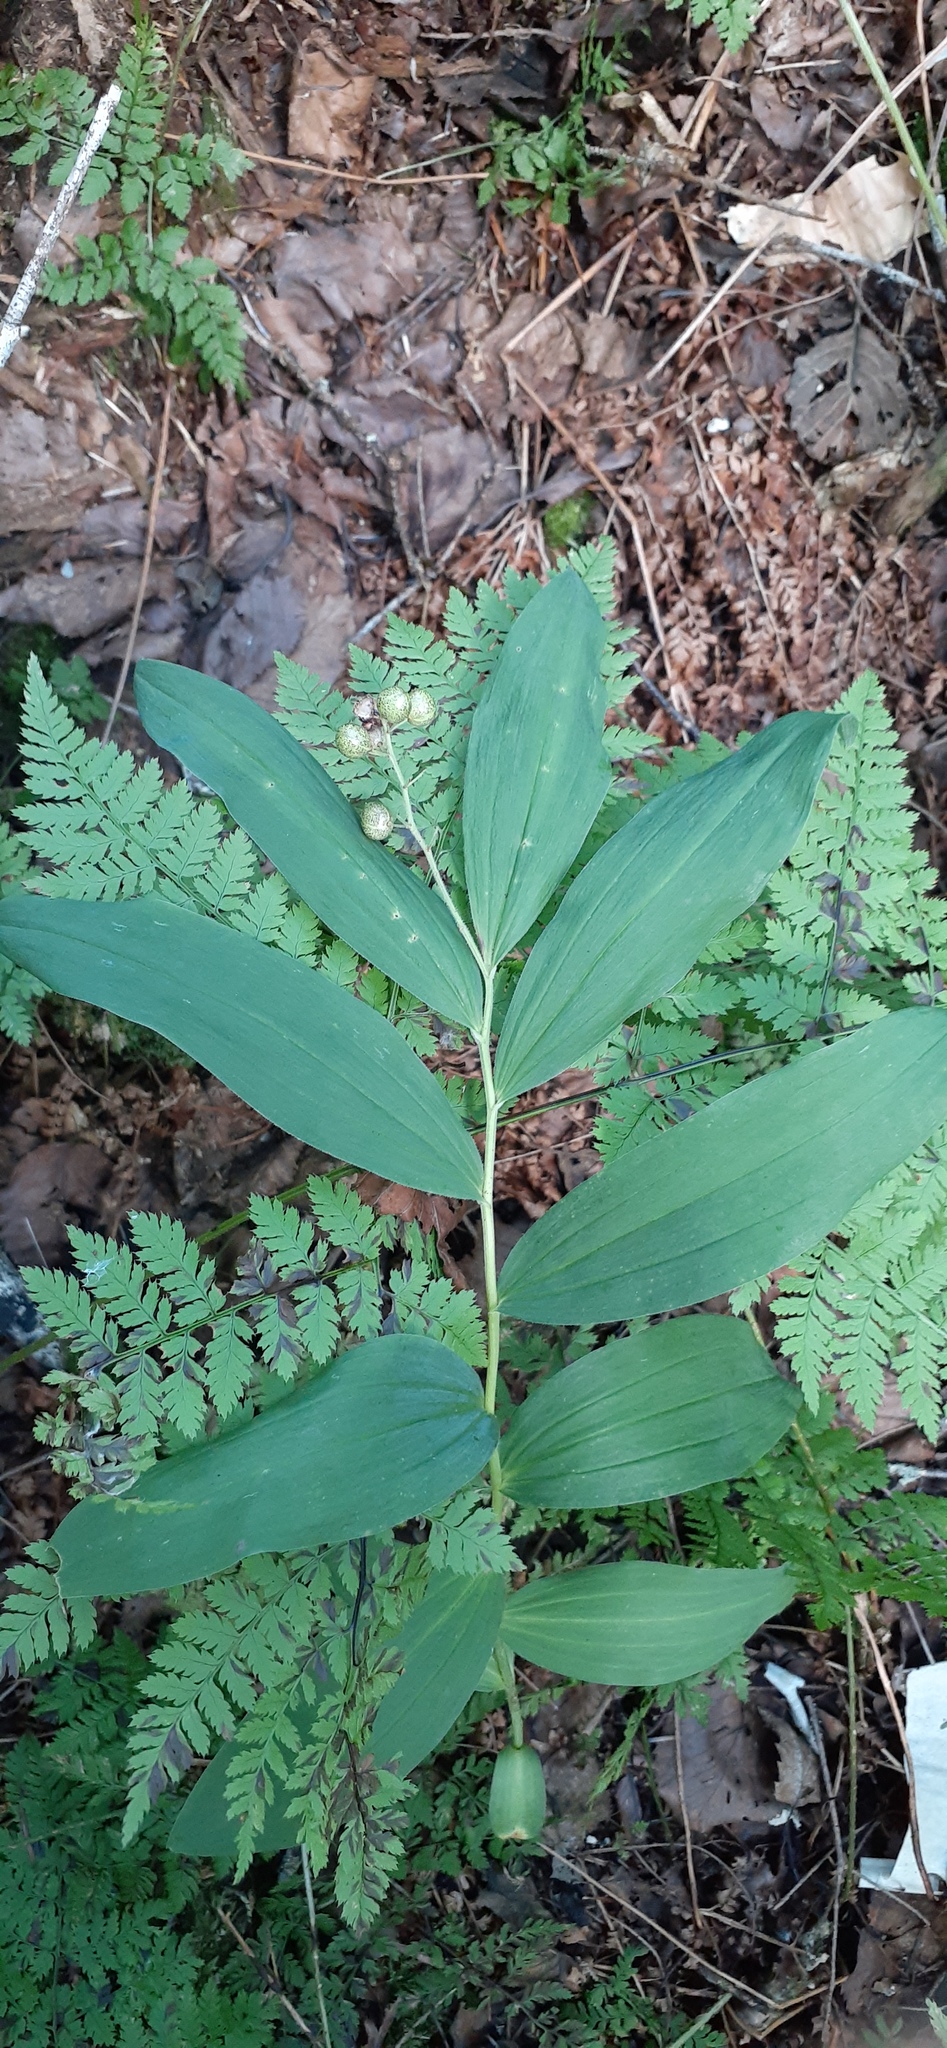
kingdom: Plantae
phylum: Tracheophyta
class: Liliopsida
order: Asparagales
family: Asparagaceae
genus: Maianthemum
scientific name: Maianthemum dahuricum
